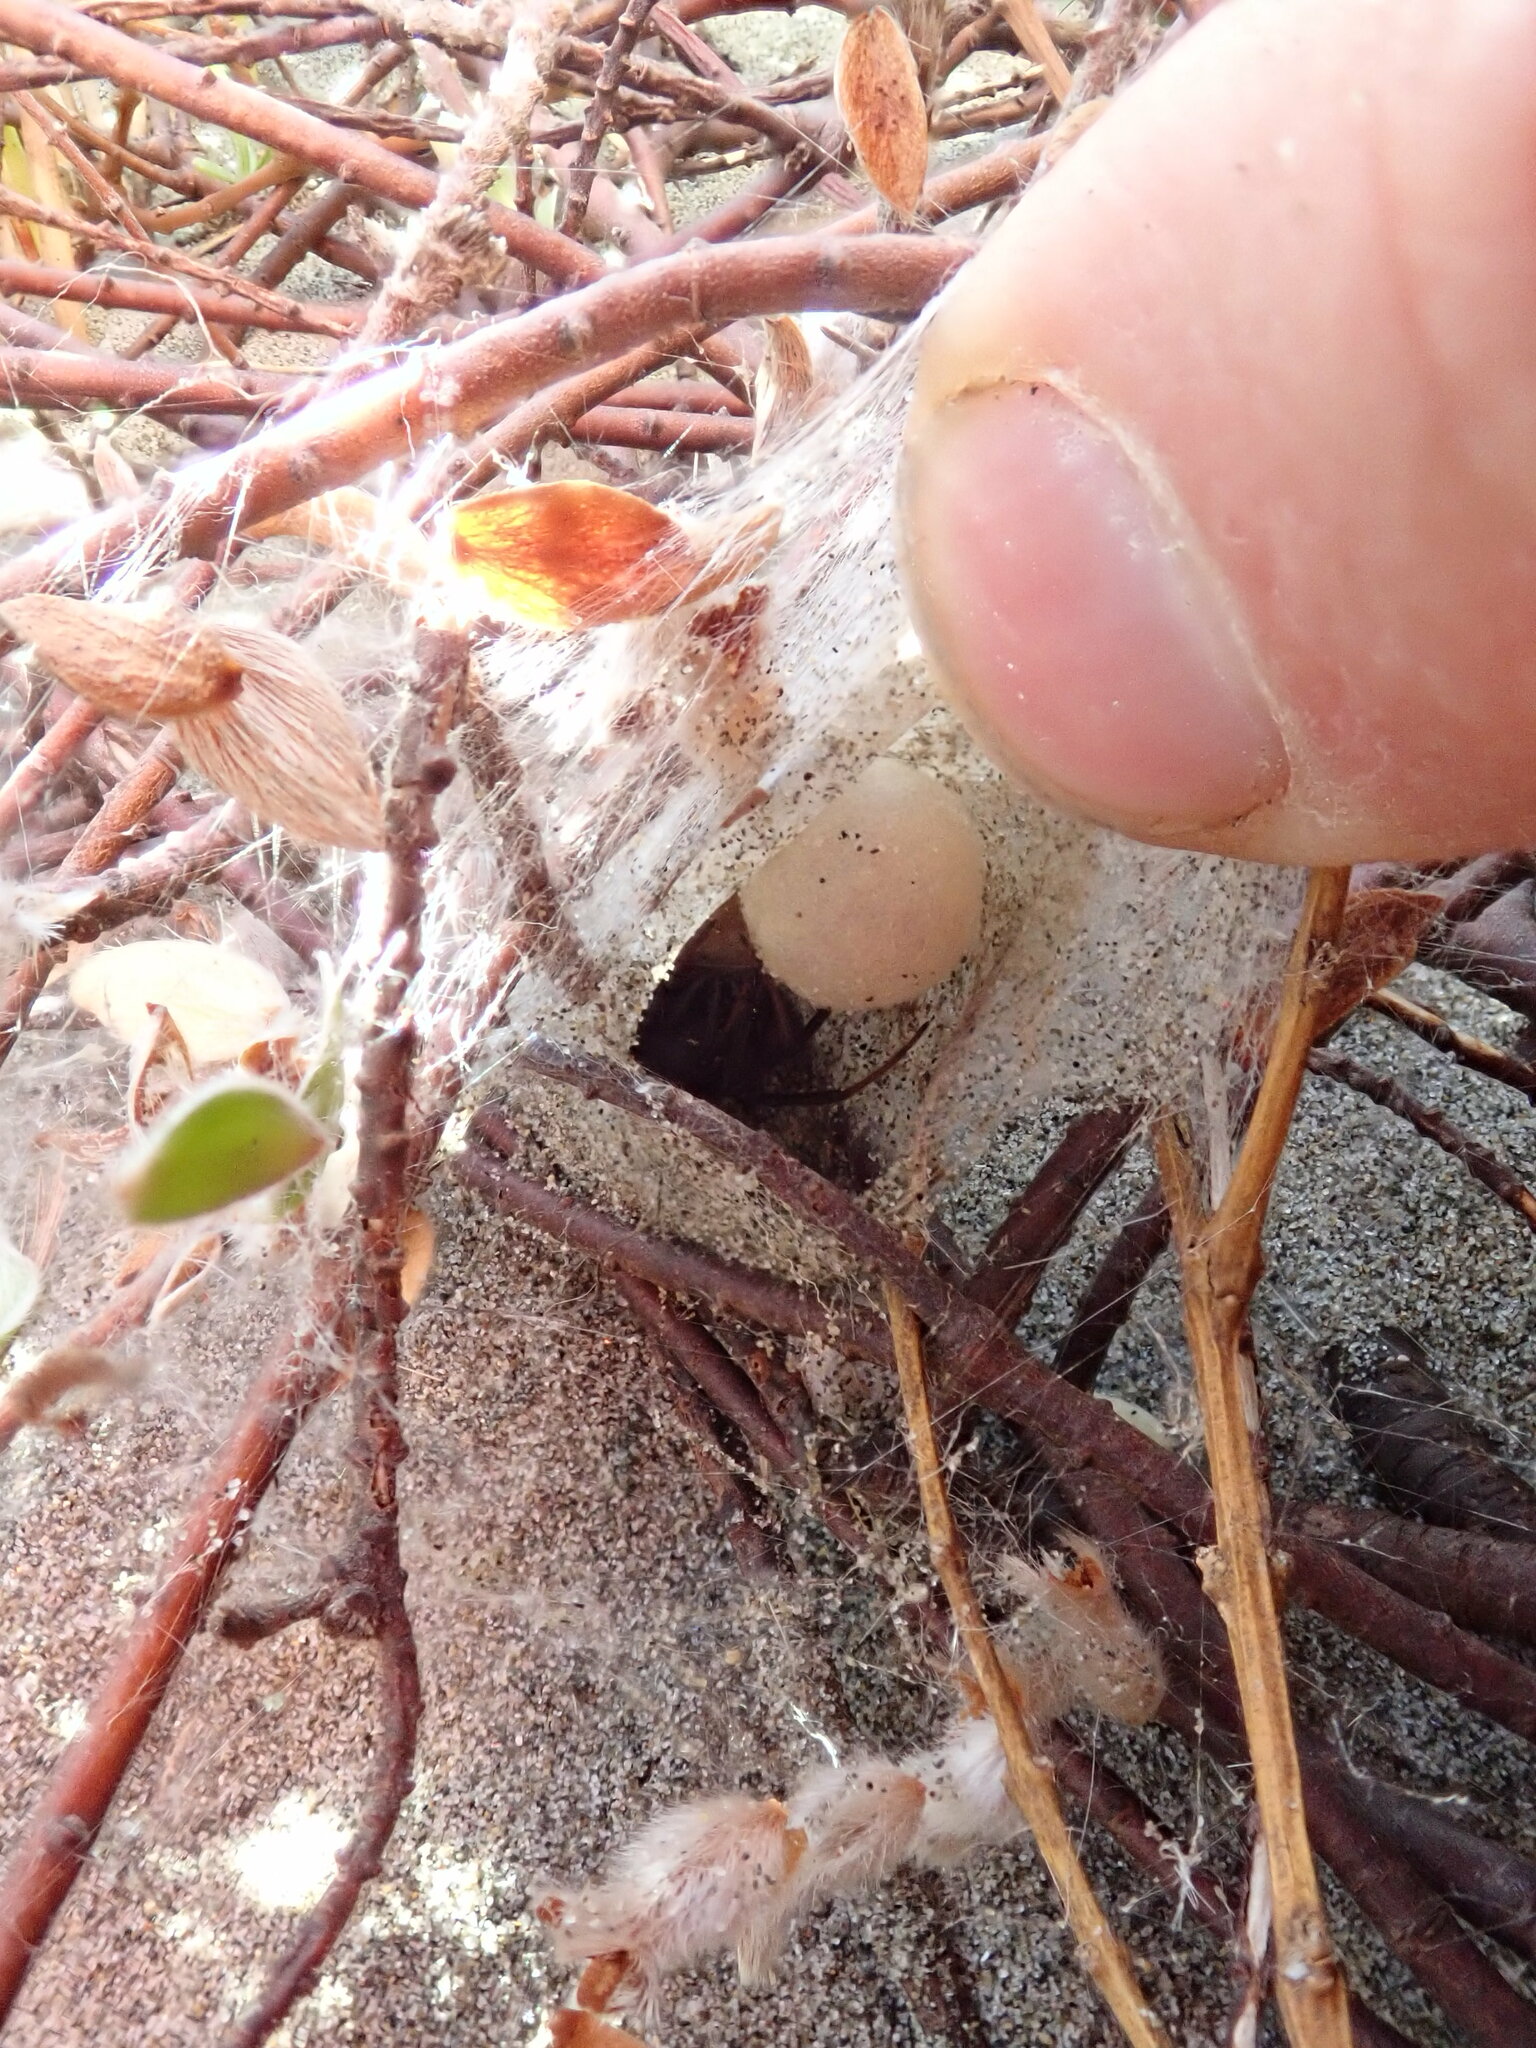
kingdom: Animalia
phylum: Arthropoda
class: Arachnida
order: Araneae
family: Theridiidae
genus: Latrodectus
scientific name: Latrodectus katipo
